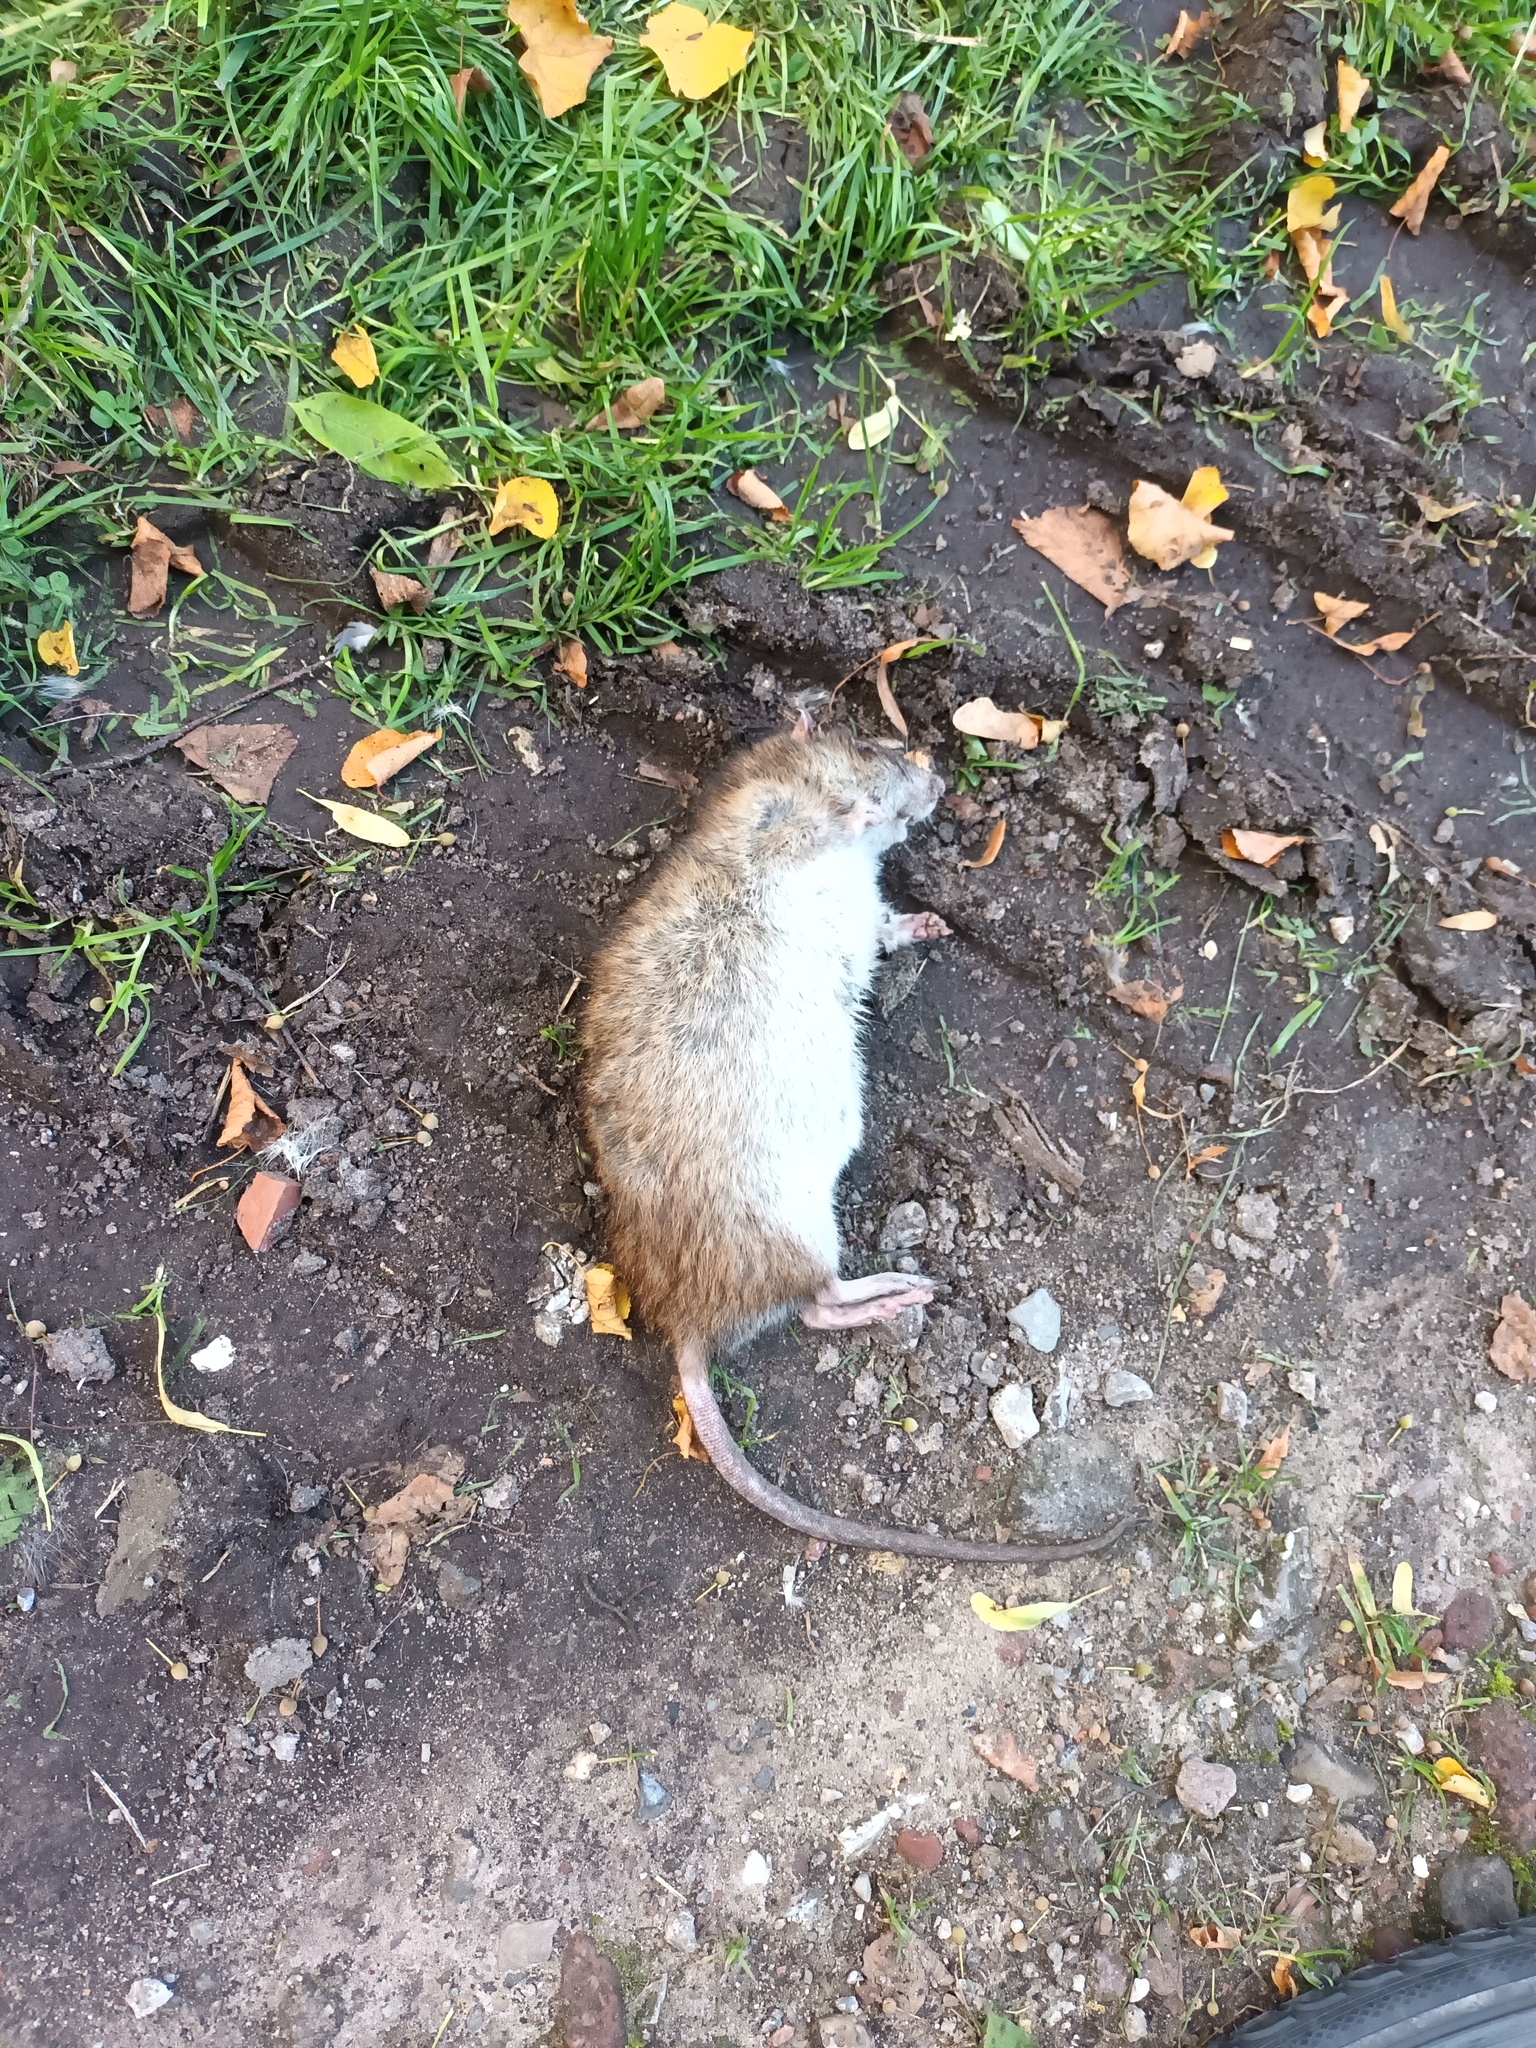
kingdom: Animalia
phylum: Chordata
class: Mammalia
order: Rodentia
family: Muridae
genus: Rattus
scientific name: Rattus norvegicus
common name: Brown rat
